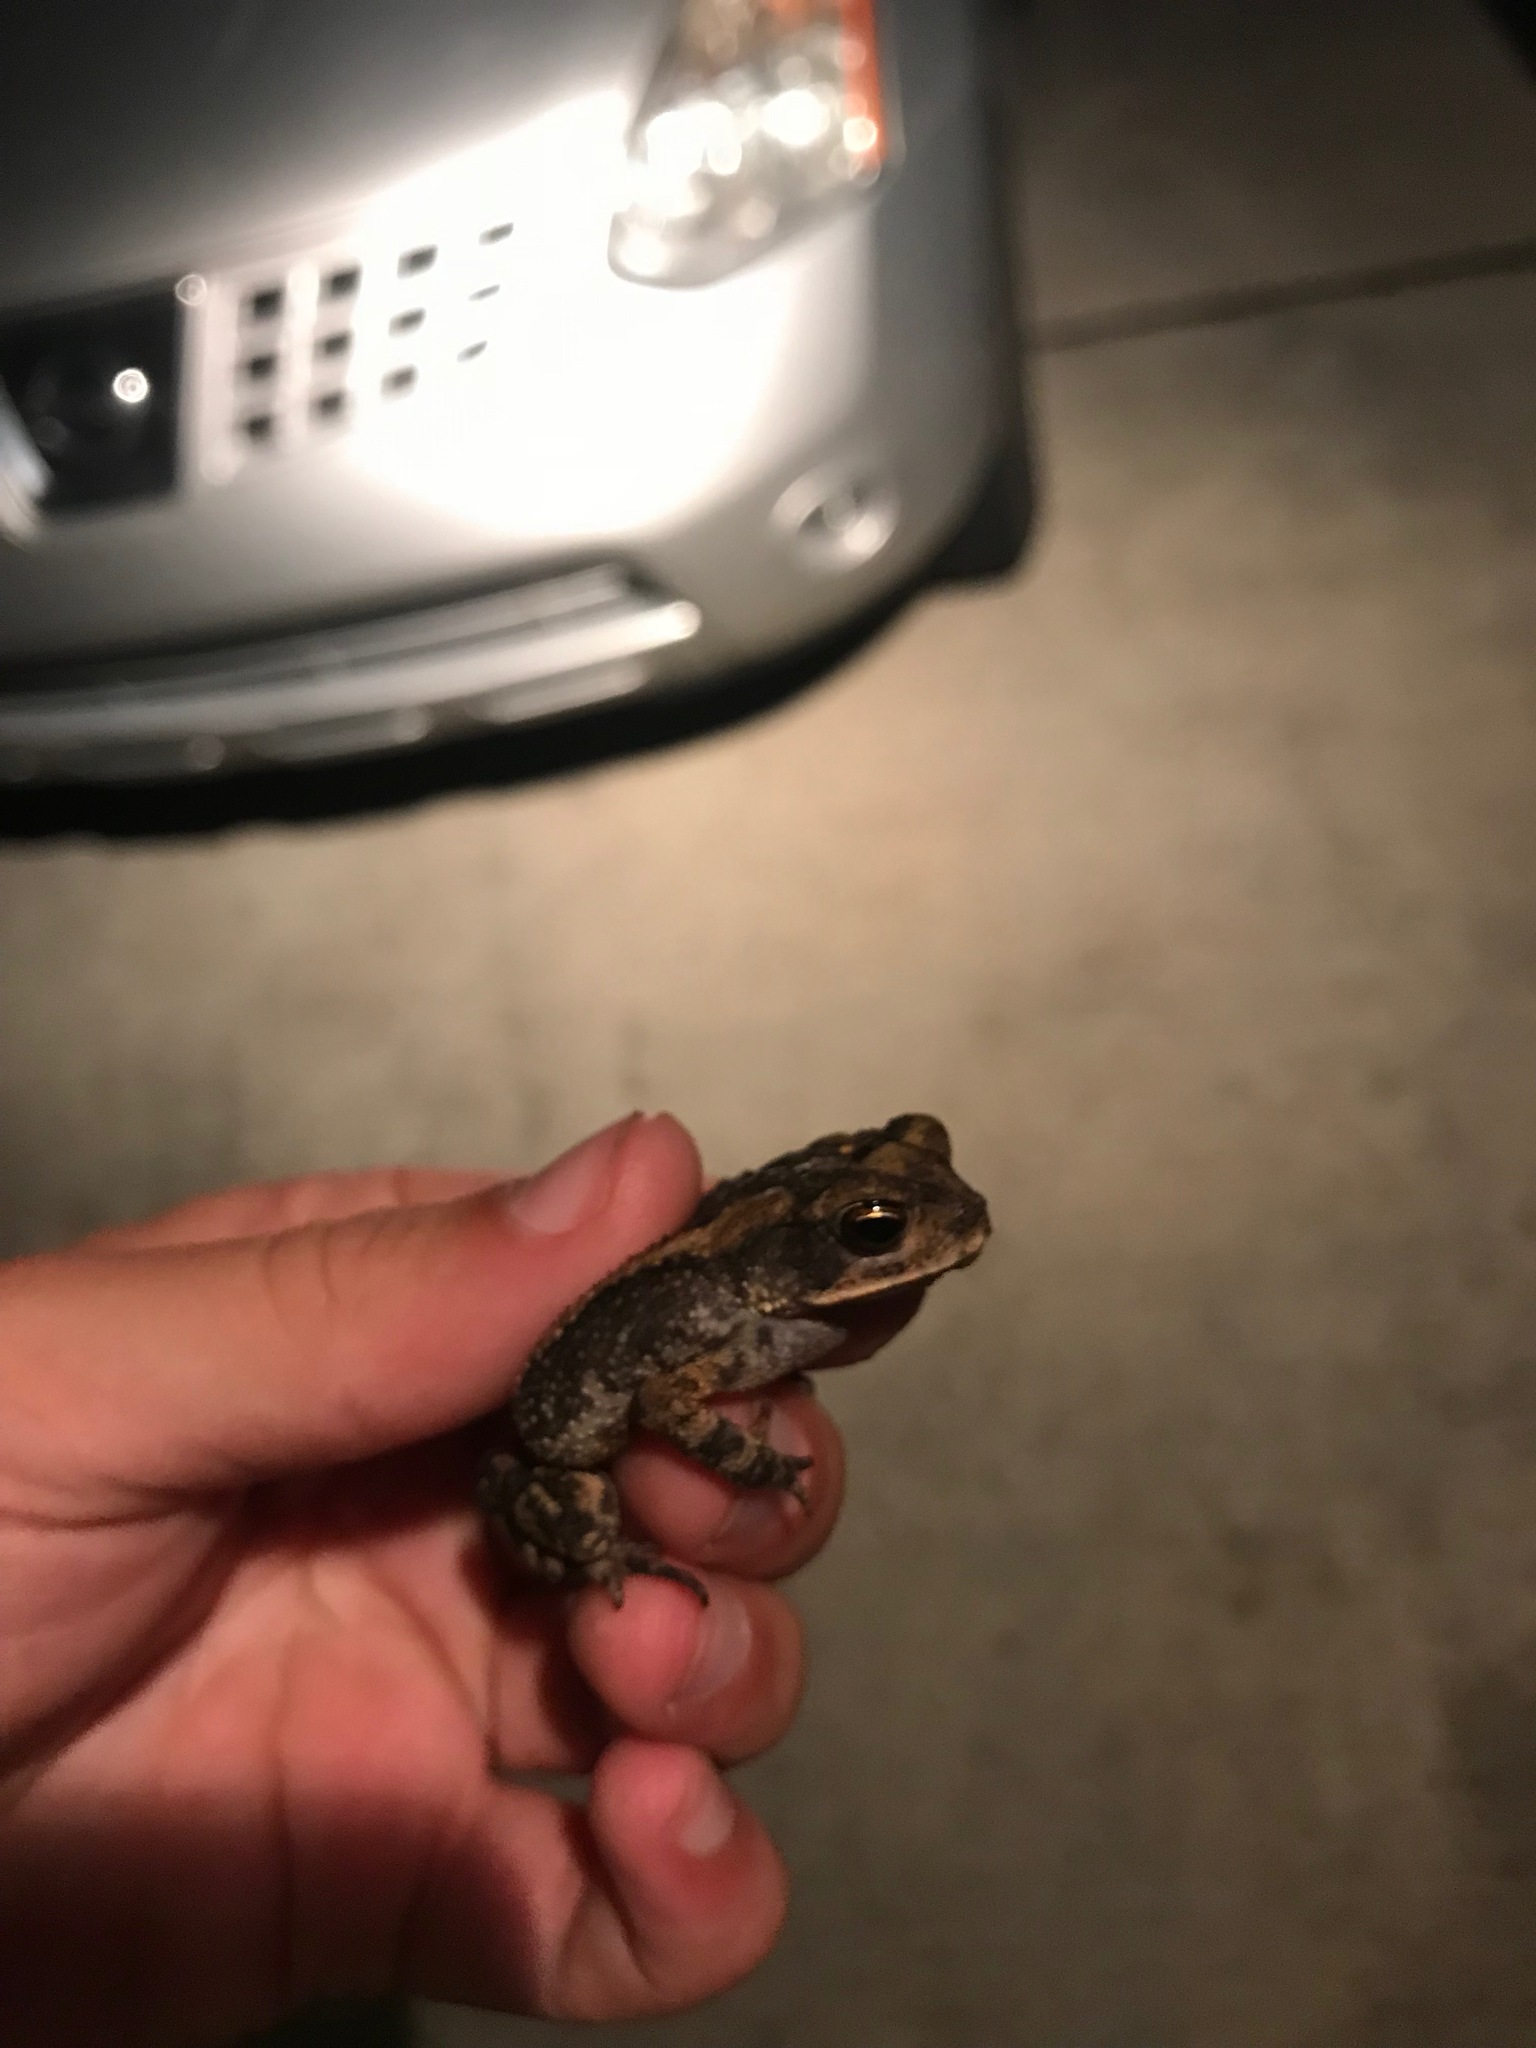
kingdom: Animalia
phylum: Chordata
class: Amphibia
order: Anura
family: Bufonidae
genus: Incilius
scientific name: Incilius nebulifer
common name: Gulf coast toad
